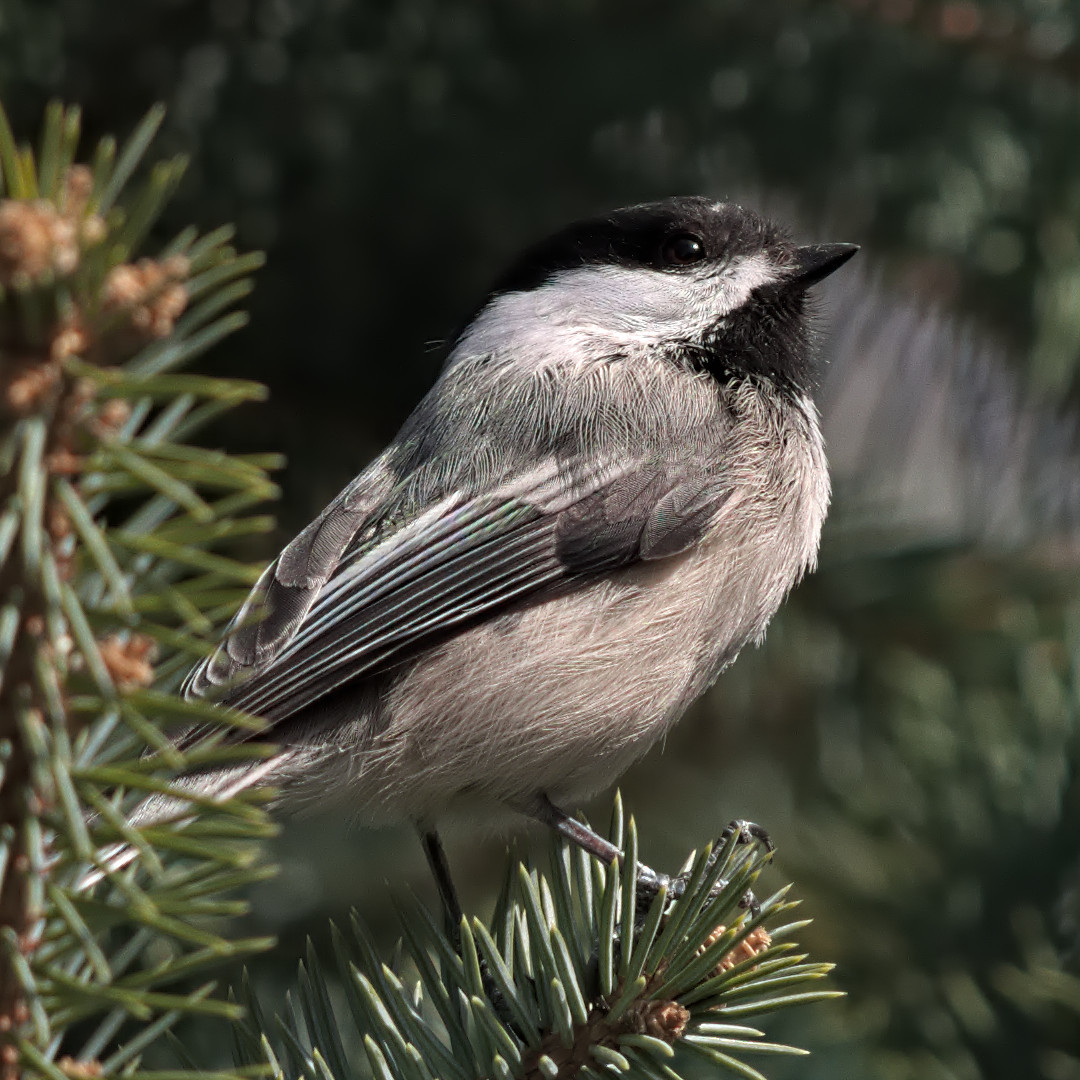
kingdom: Animalia
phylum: Chordata
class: Aves
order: Passeriformes
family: Paridae
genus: Poecile
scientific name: Poecile atricapillus
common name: Black-capped chickadee
